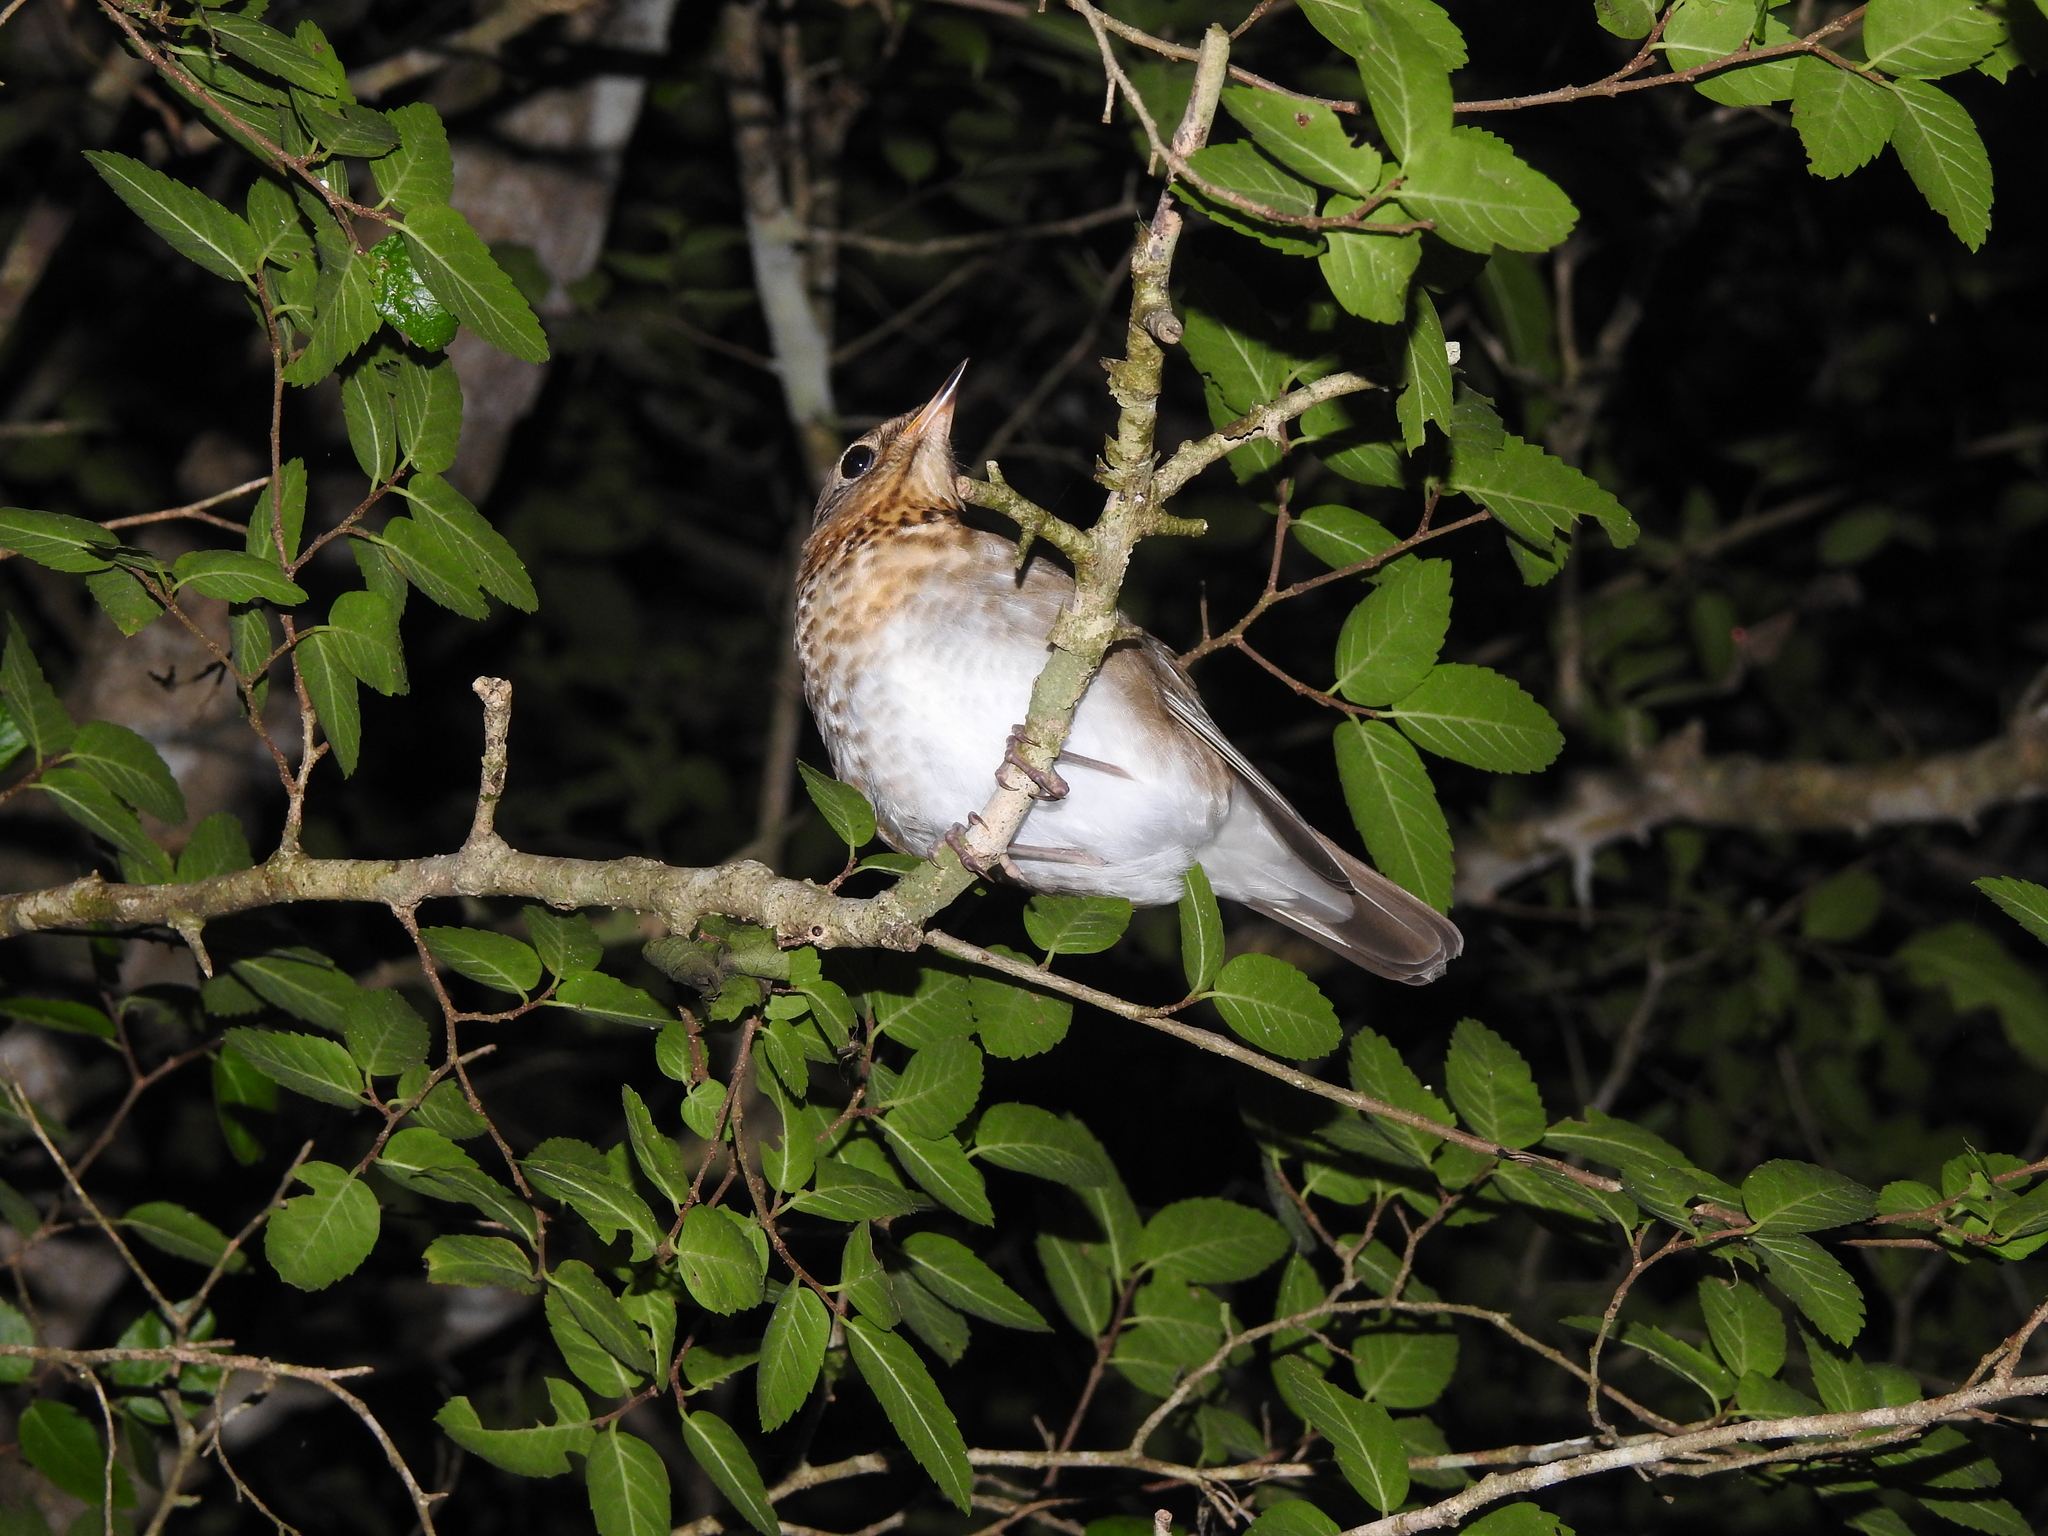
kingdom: Animalia
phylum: Chordata
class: Aves
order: Passeriformes
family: Turdidae
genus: Catharus
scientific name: Catharus ustulatus
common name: Swainson's thrush
